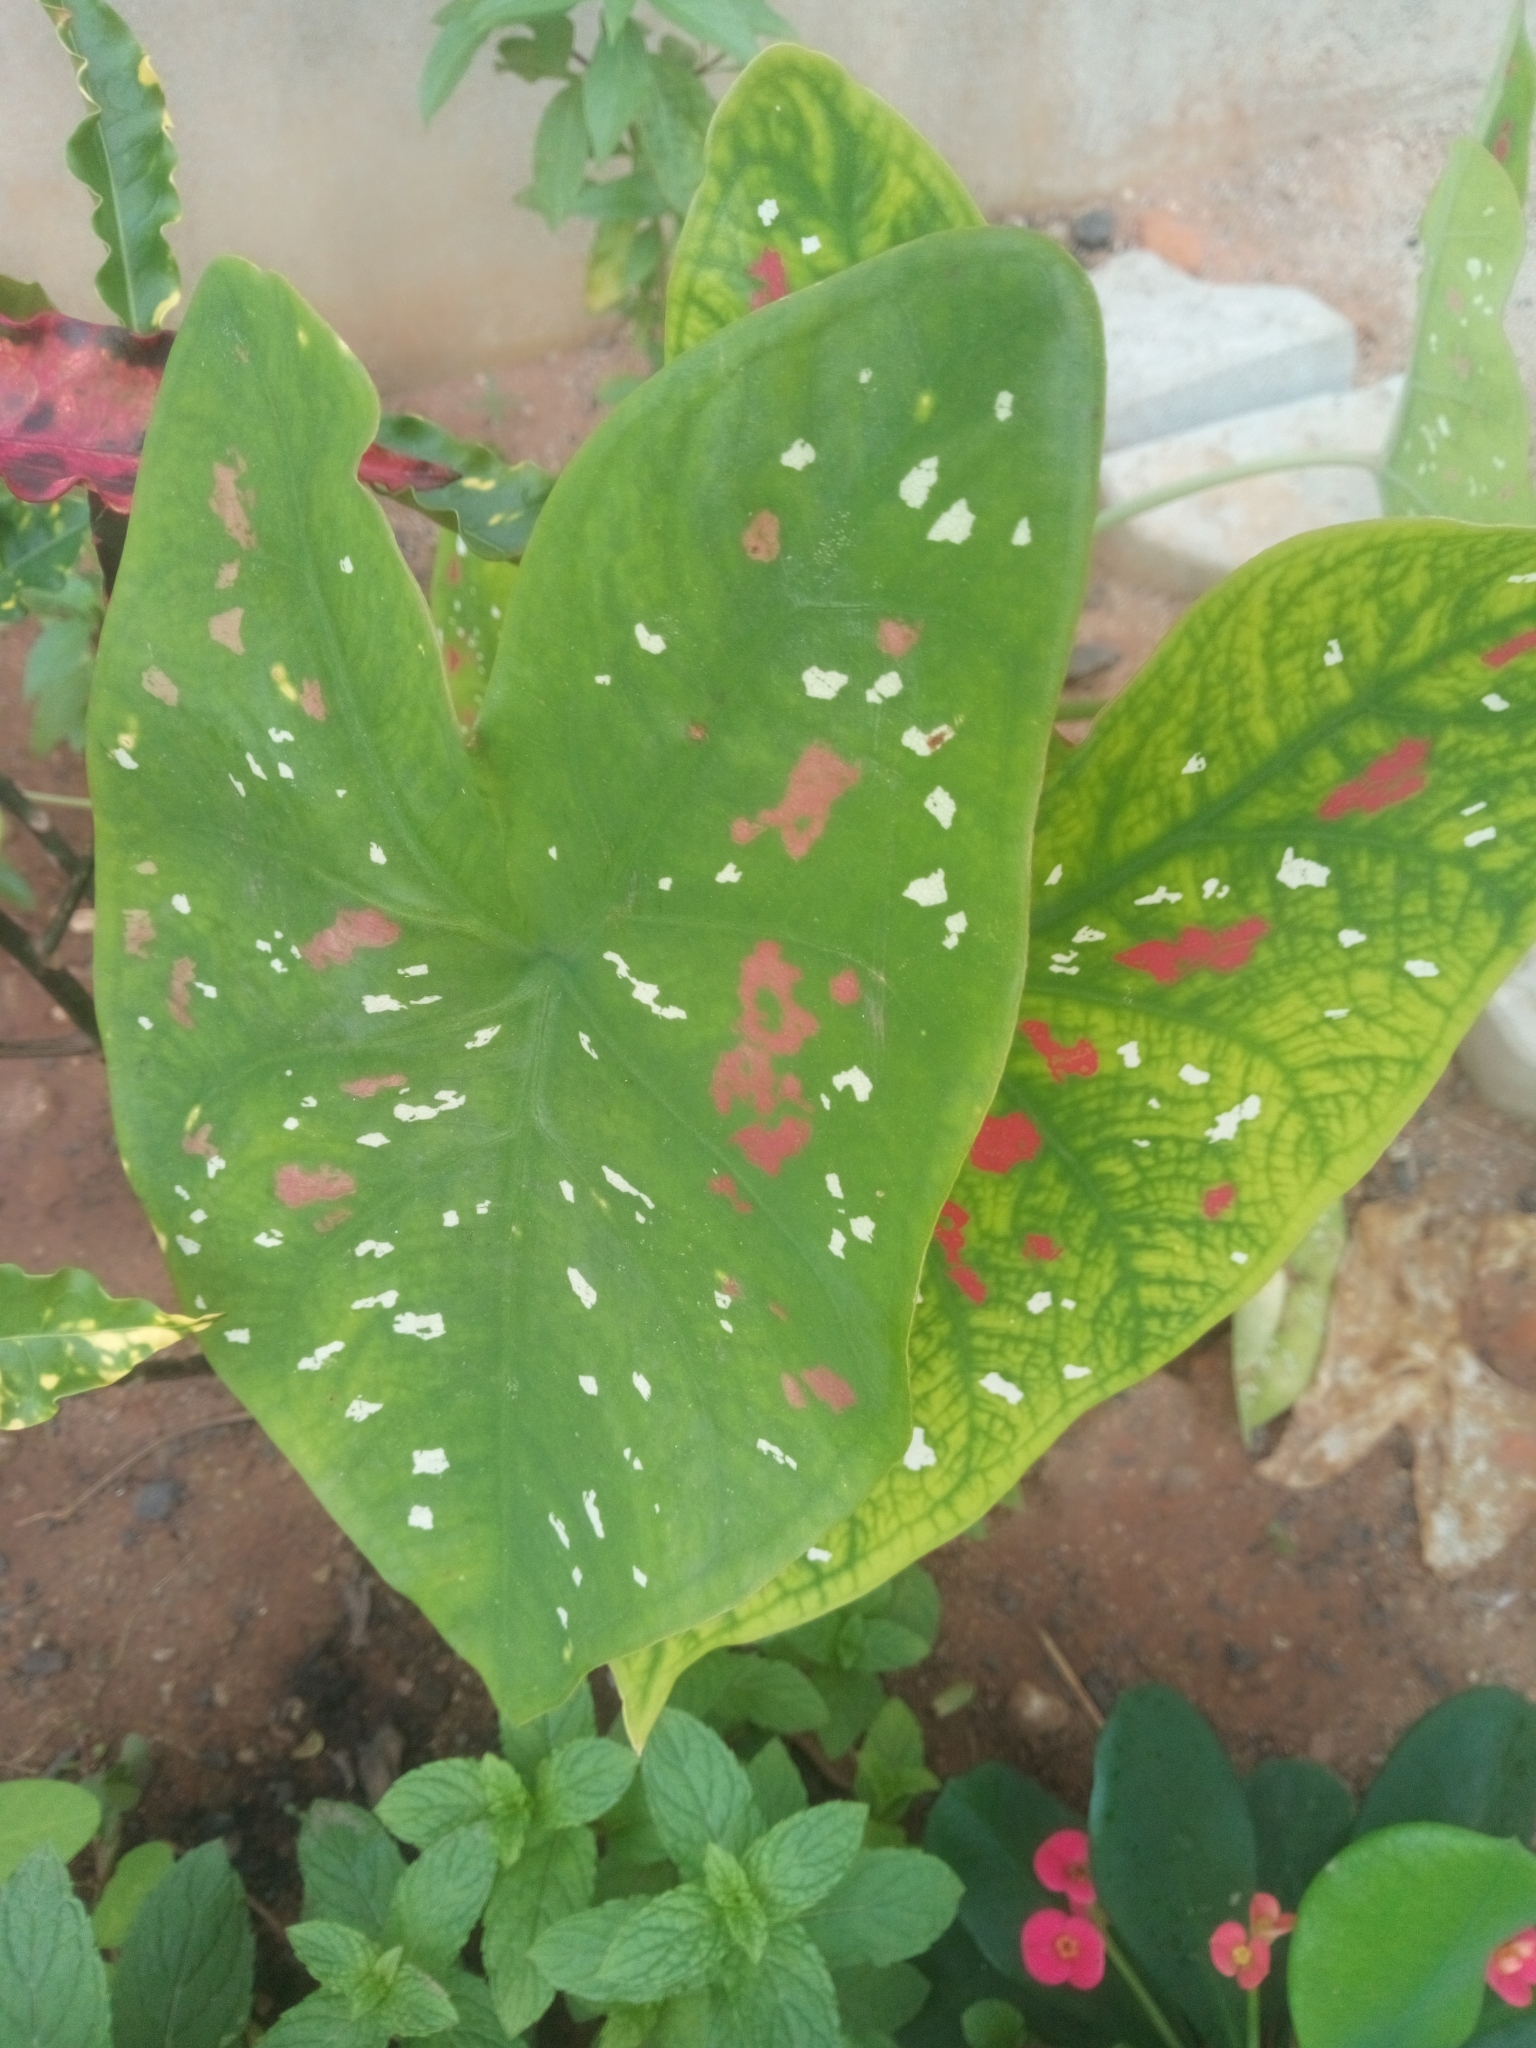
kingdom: Plantae
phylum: Tracheophyta
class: Liliopsida
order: Alismatales
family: Araceae
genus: Caladium
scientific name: Caladium bicolor
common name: Artist's pallet
